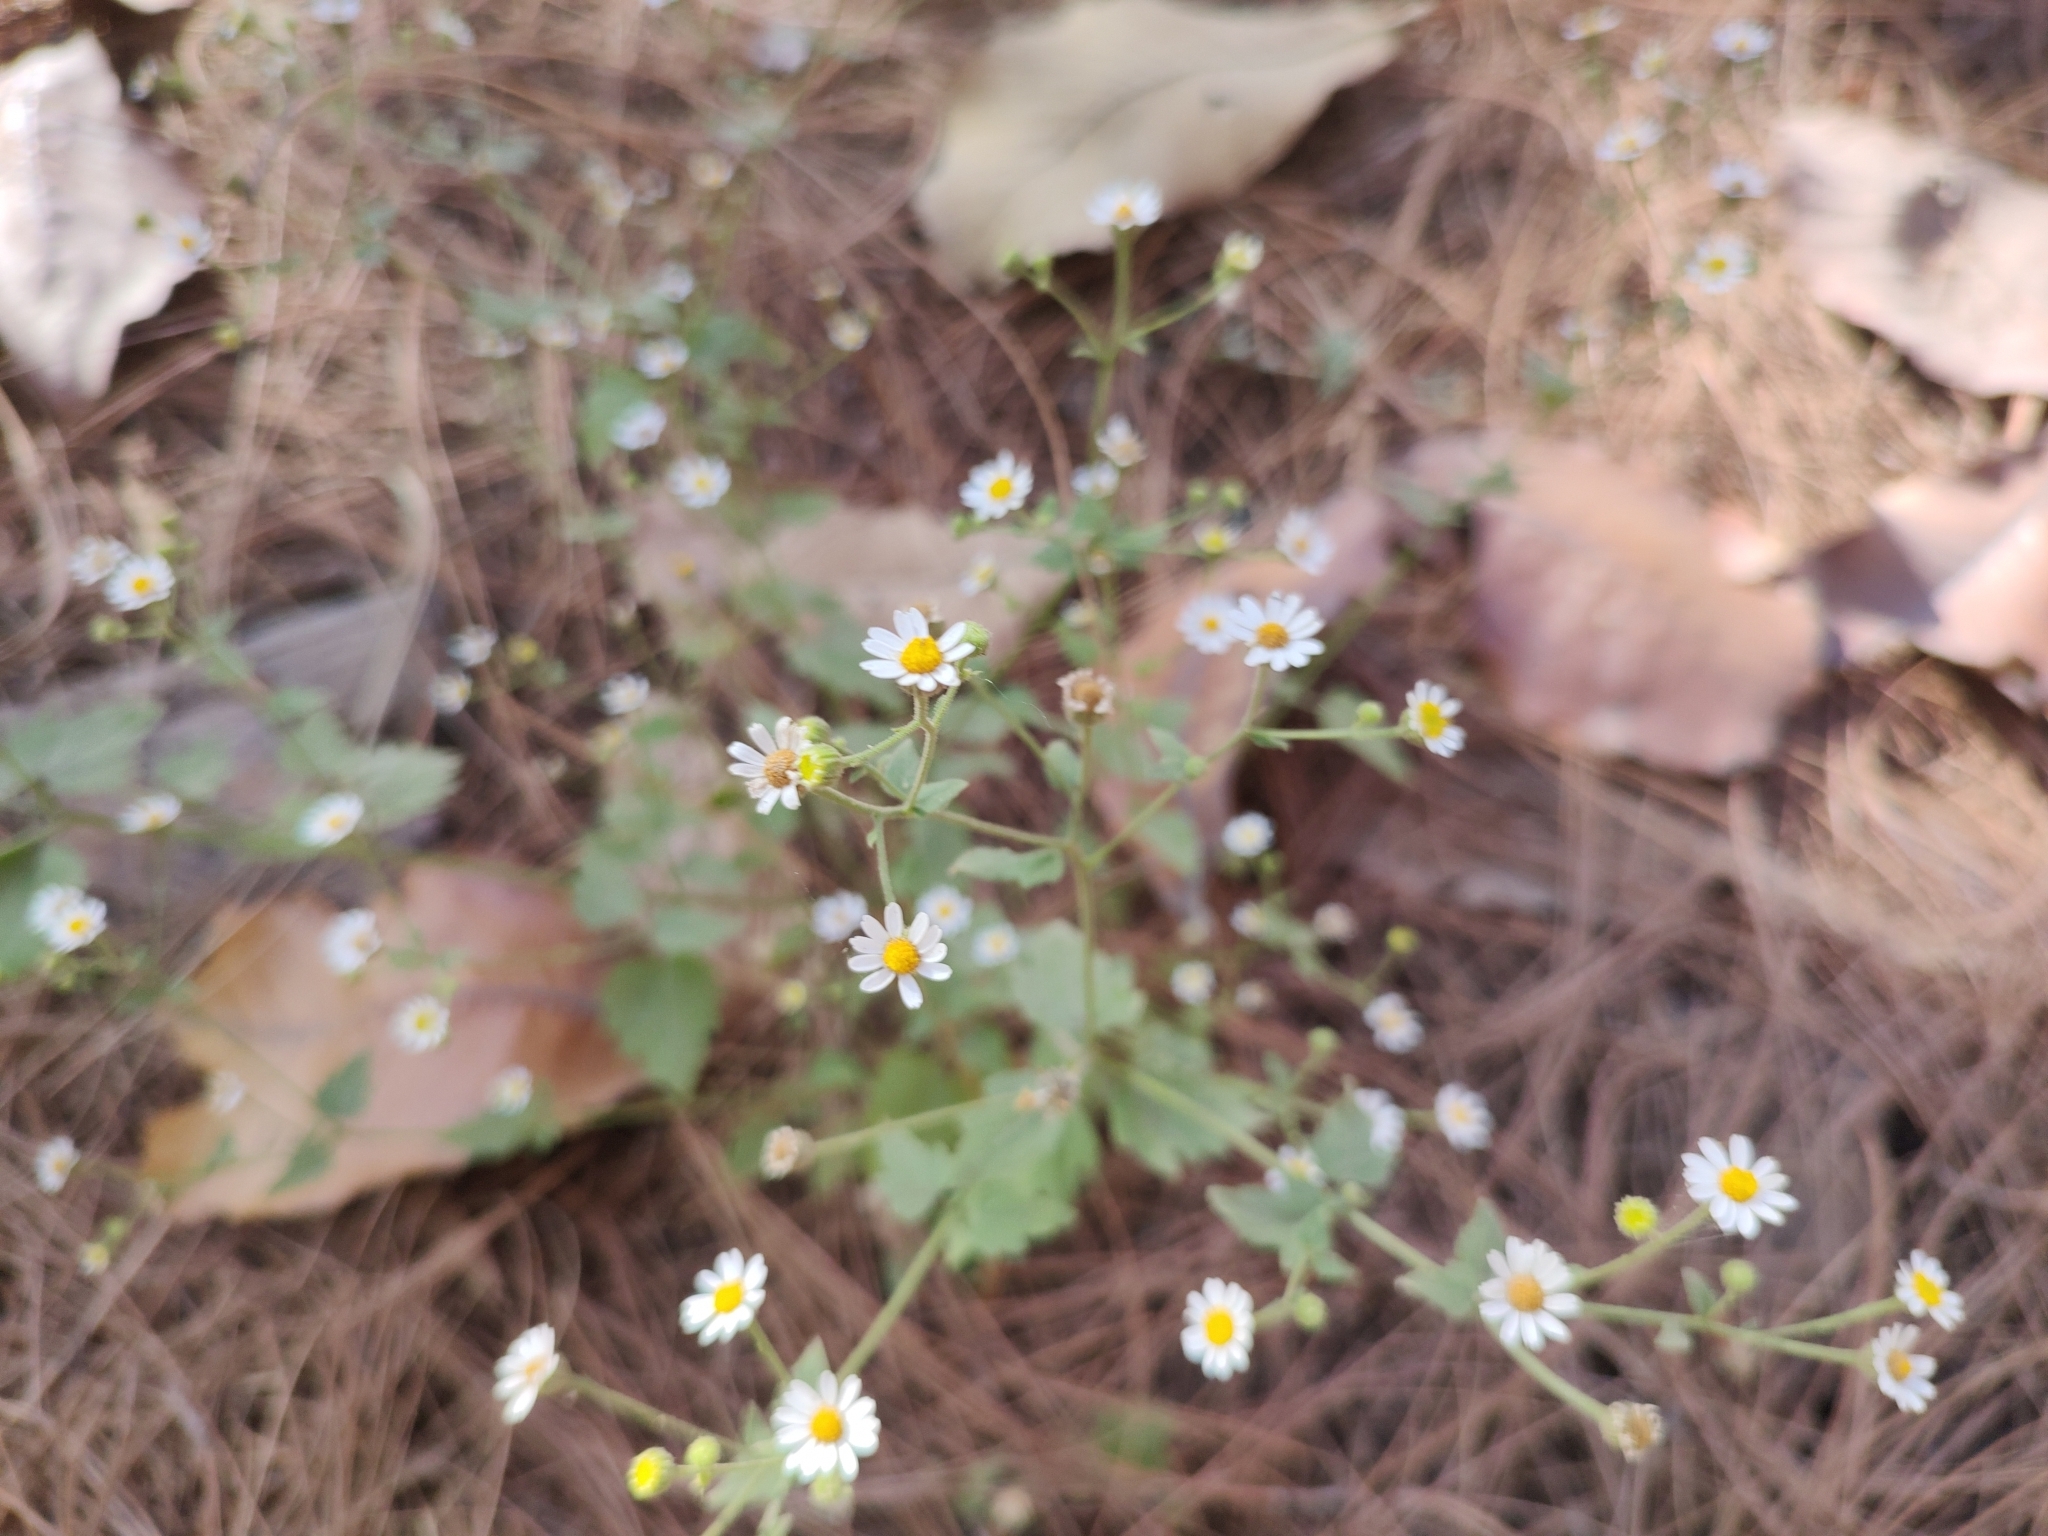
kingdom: Plantae
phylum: Tracheophyta
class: Magnoliopsida
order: Asterales
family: Asteraceae
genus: Galinsogeopsis
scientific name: Galinsogeopsis spilanthoides
